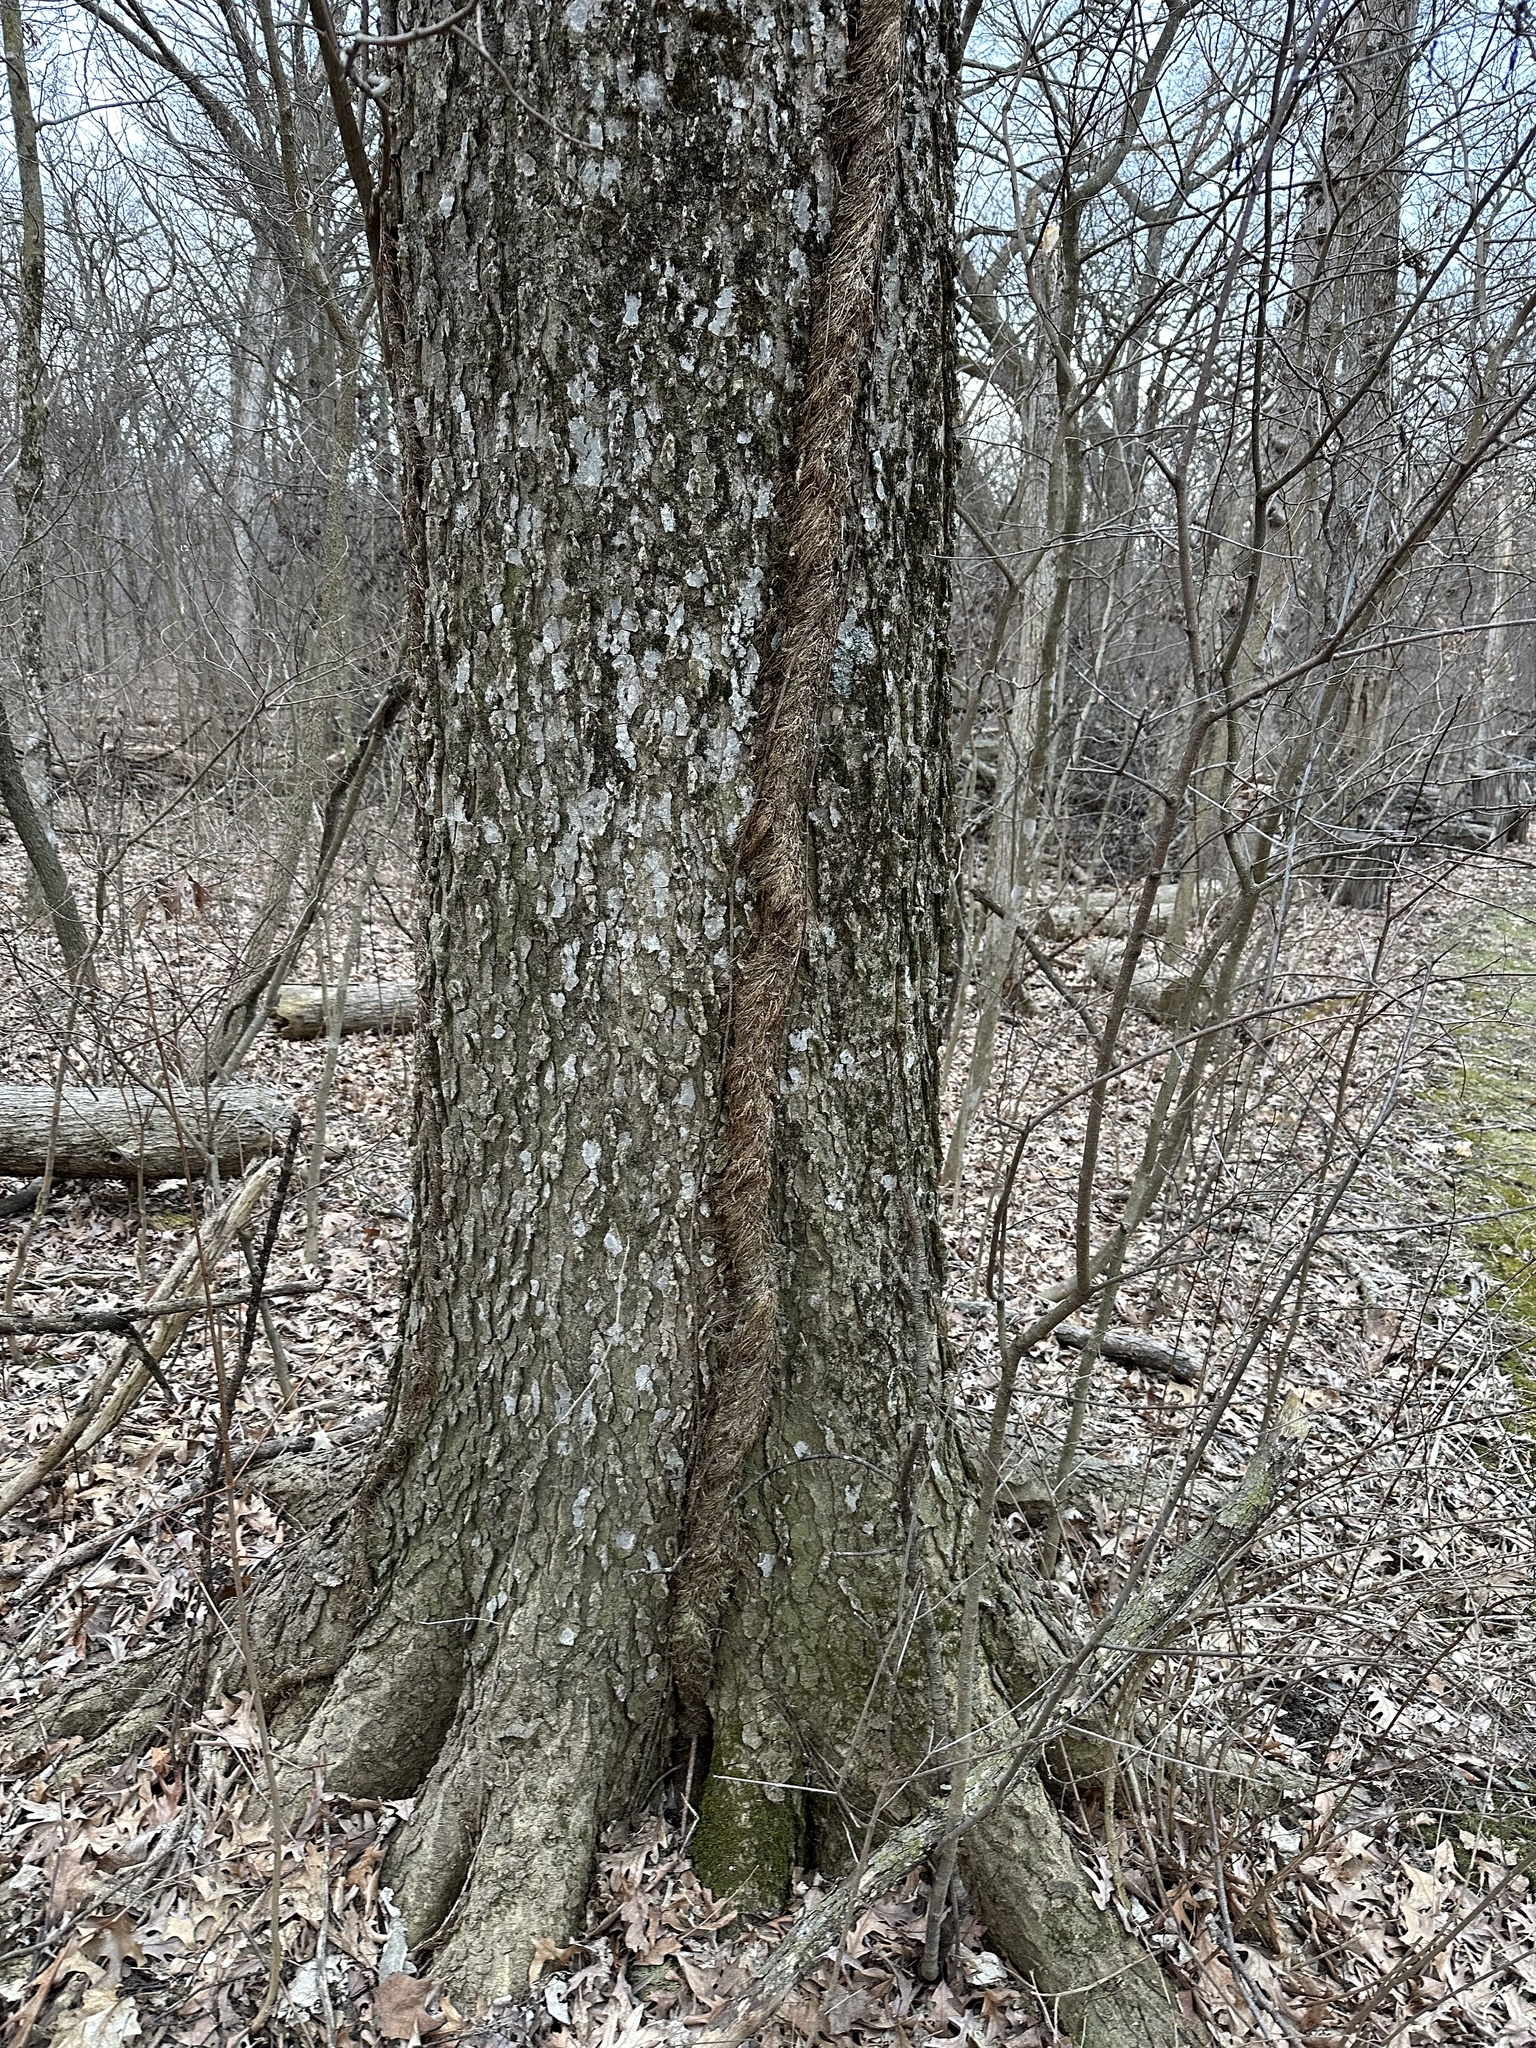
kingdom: Plantae
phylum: Tracheophyta
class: Magnoliopsida
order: Sapindales
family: Anacardiaceae
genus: Toxicodendron
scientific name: Toxicodendron radicans
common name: Poison ivy
